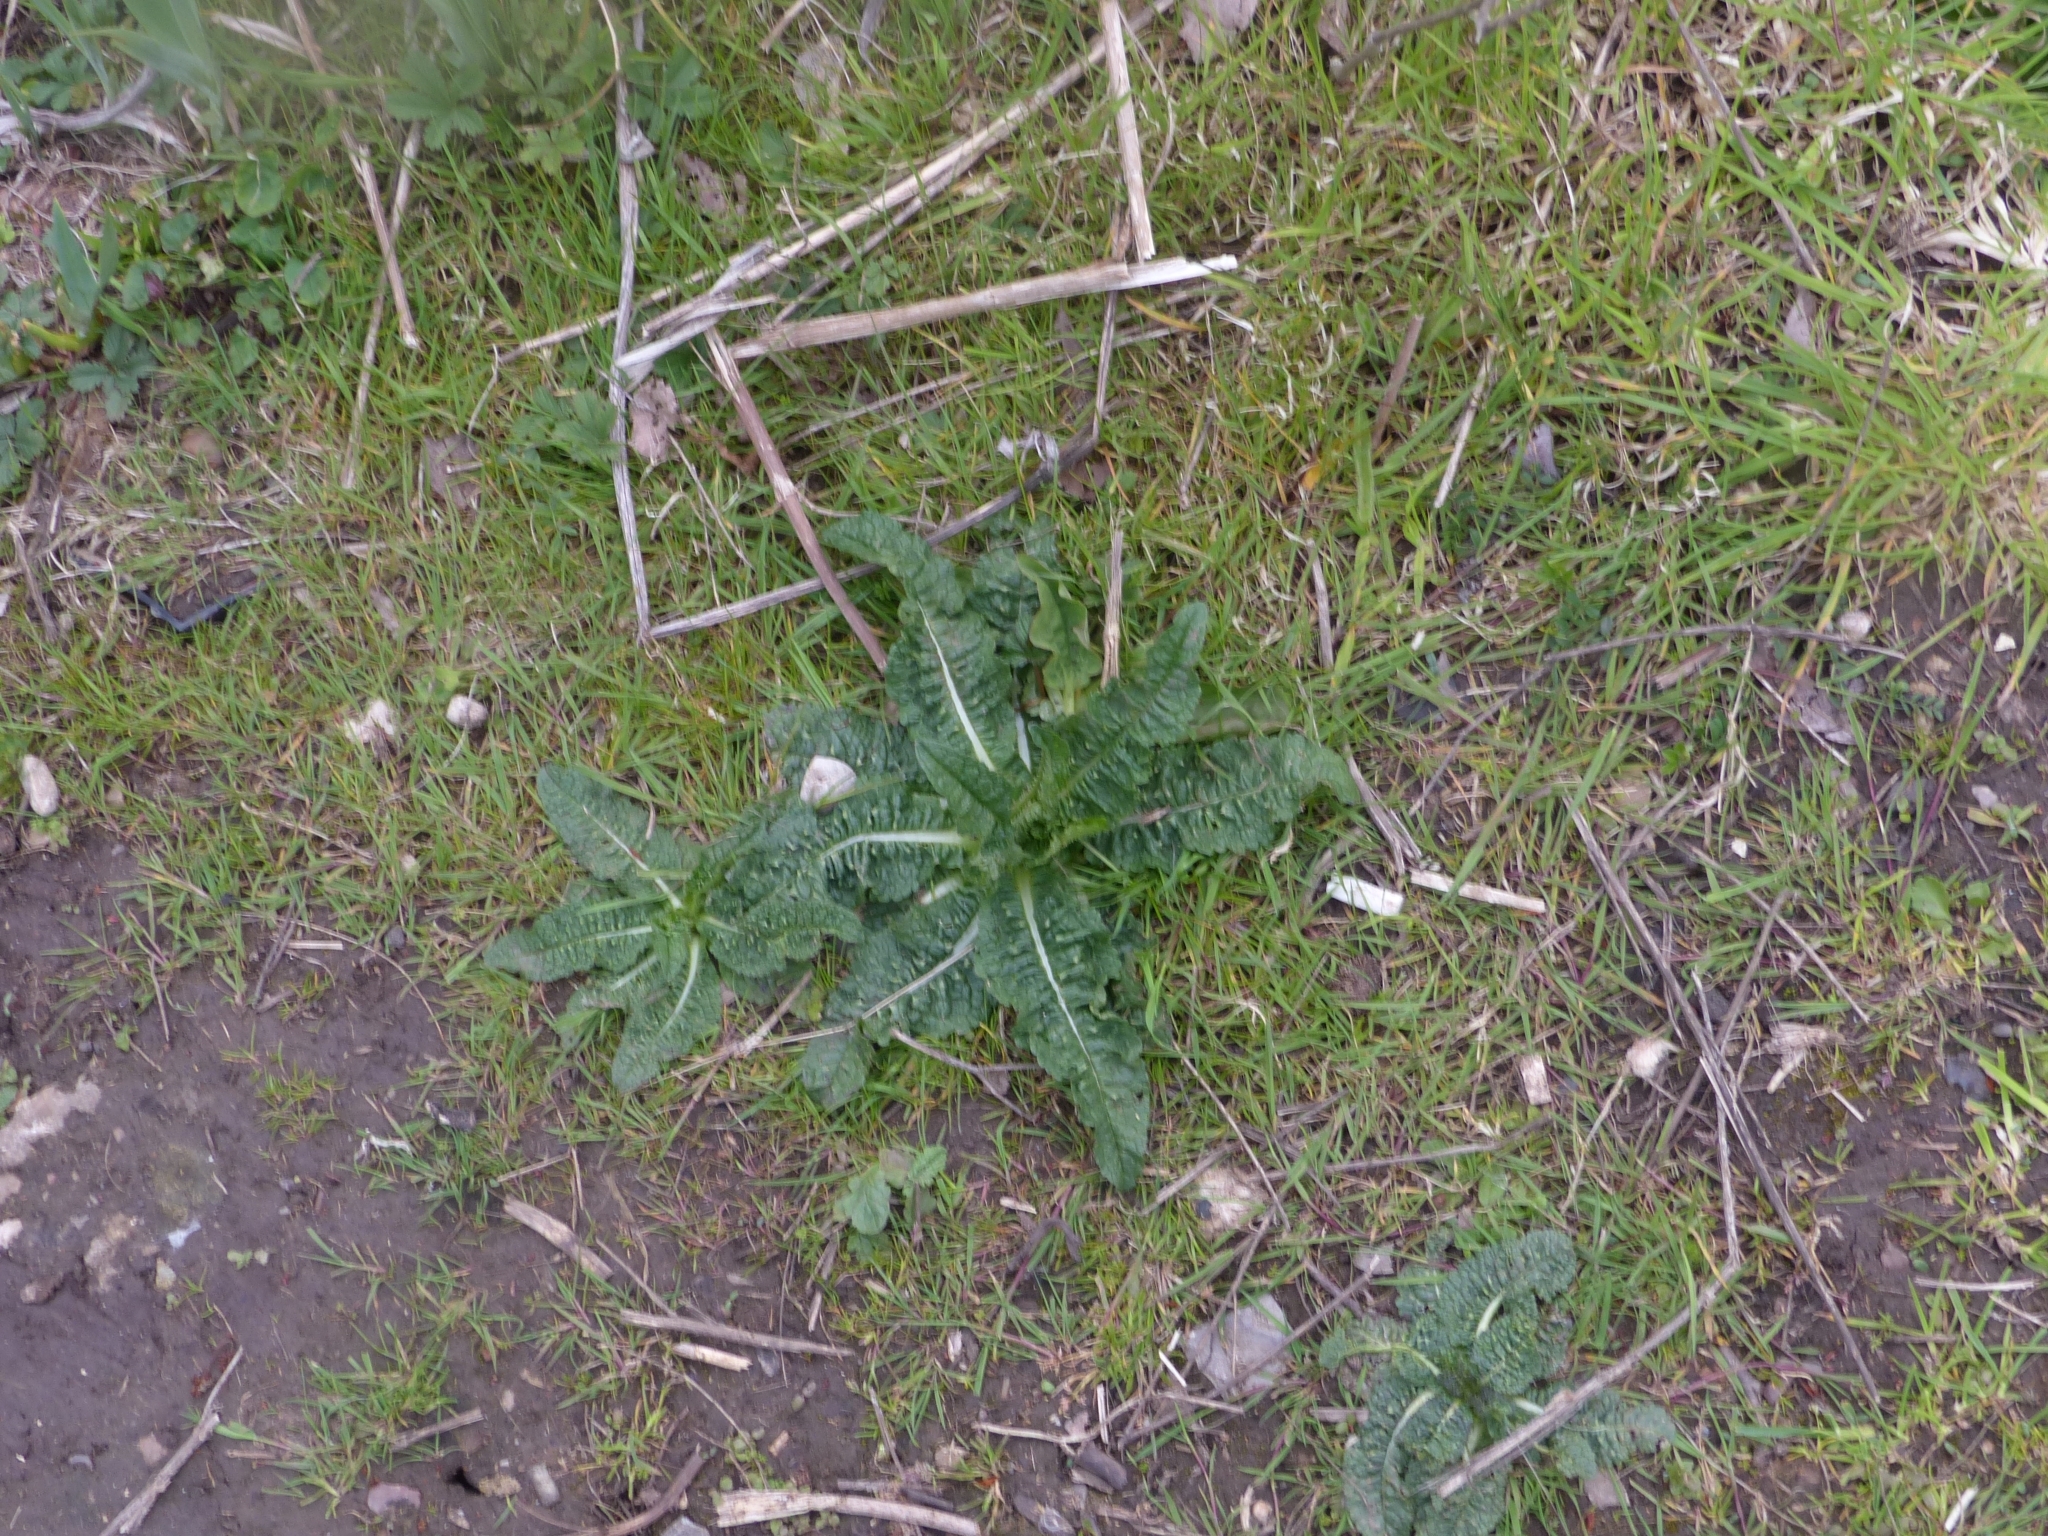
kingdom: Plantae
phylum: Tracheophyta
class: Magnoliopsida
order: Dipsacales
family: Caprifoliaceae
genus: Dipsacus
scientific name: Dipsacus fullonum
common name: Teasel
